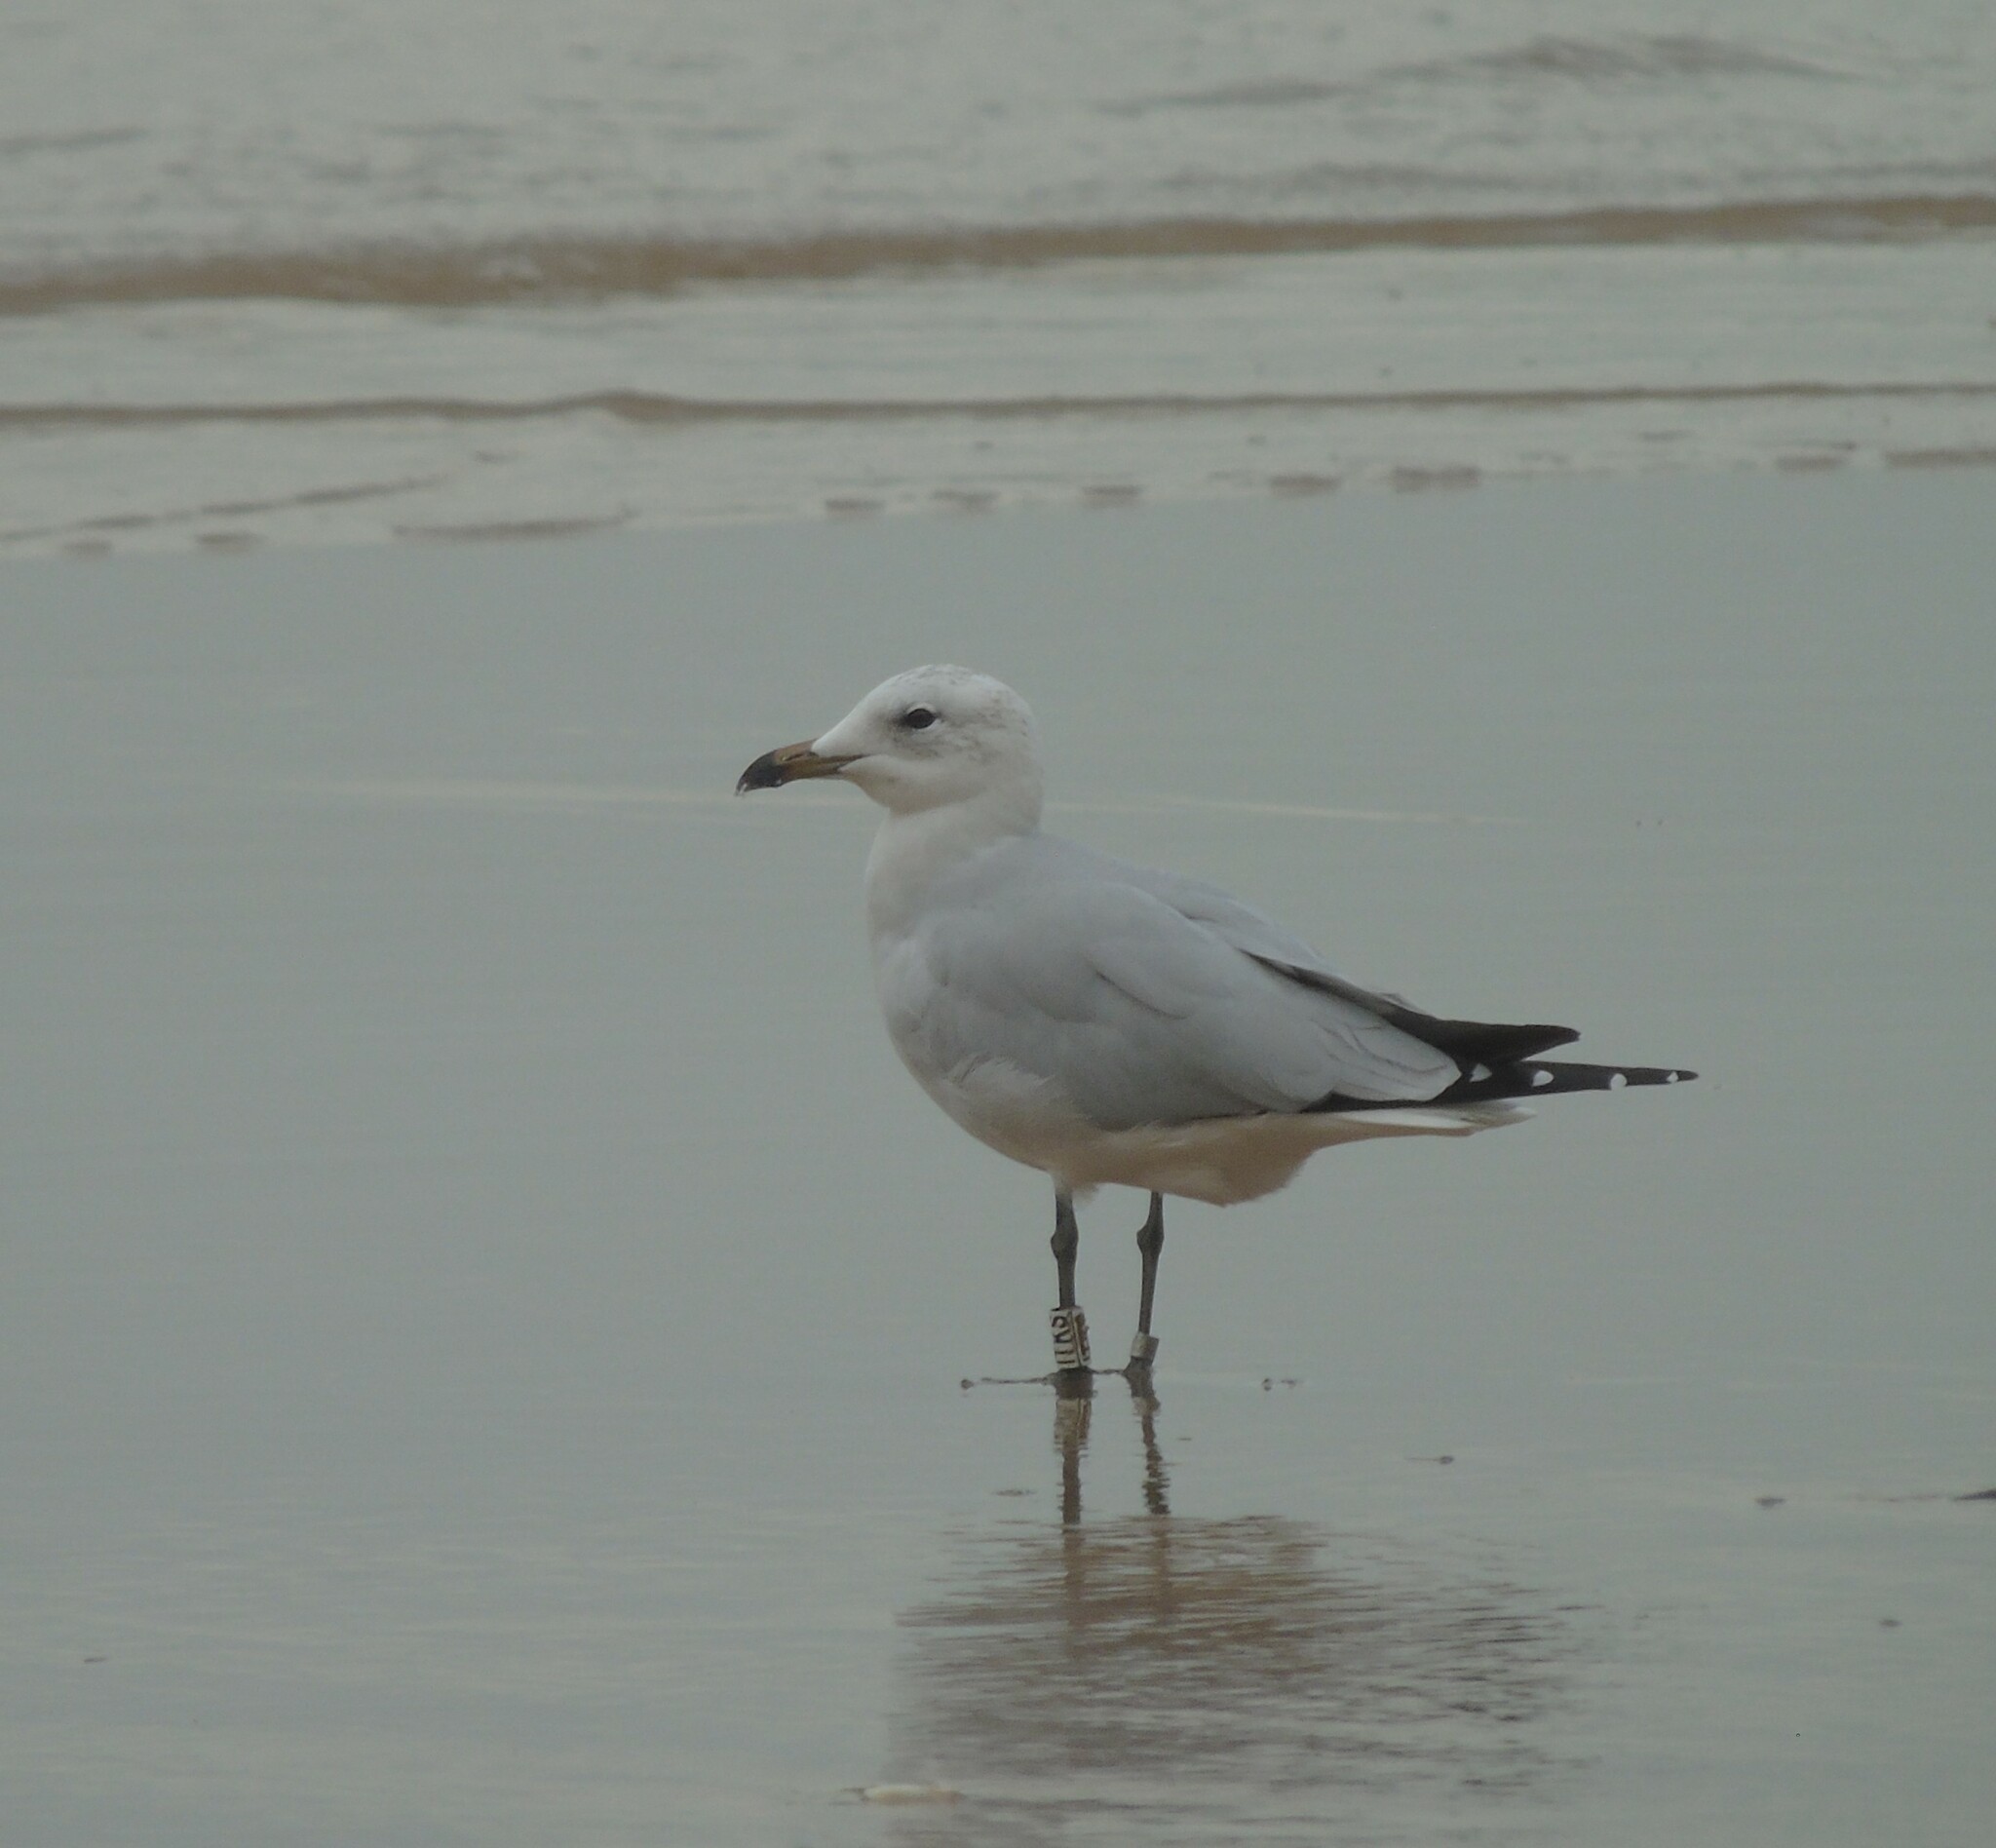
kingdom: Animalia
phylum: Chordata
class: Aves
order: Charadriiformes
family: Laridae
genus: Ichthyaetus
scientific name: Ichthyaetus audouinii
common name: Audouin's gull
